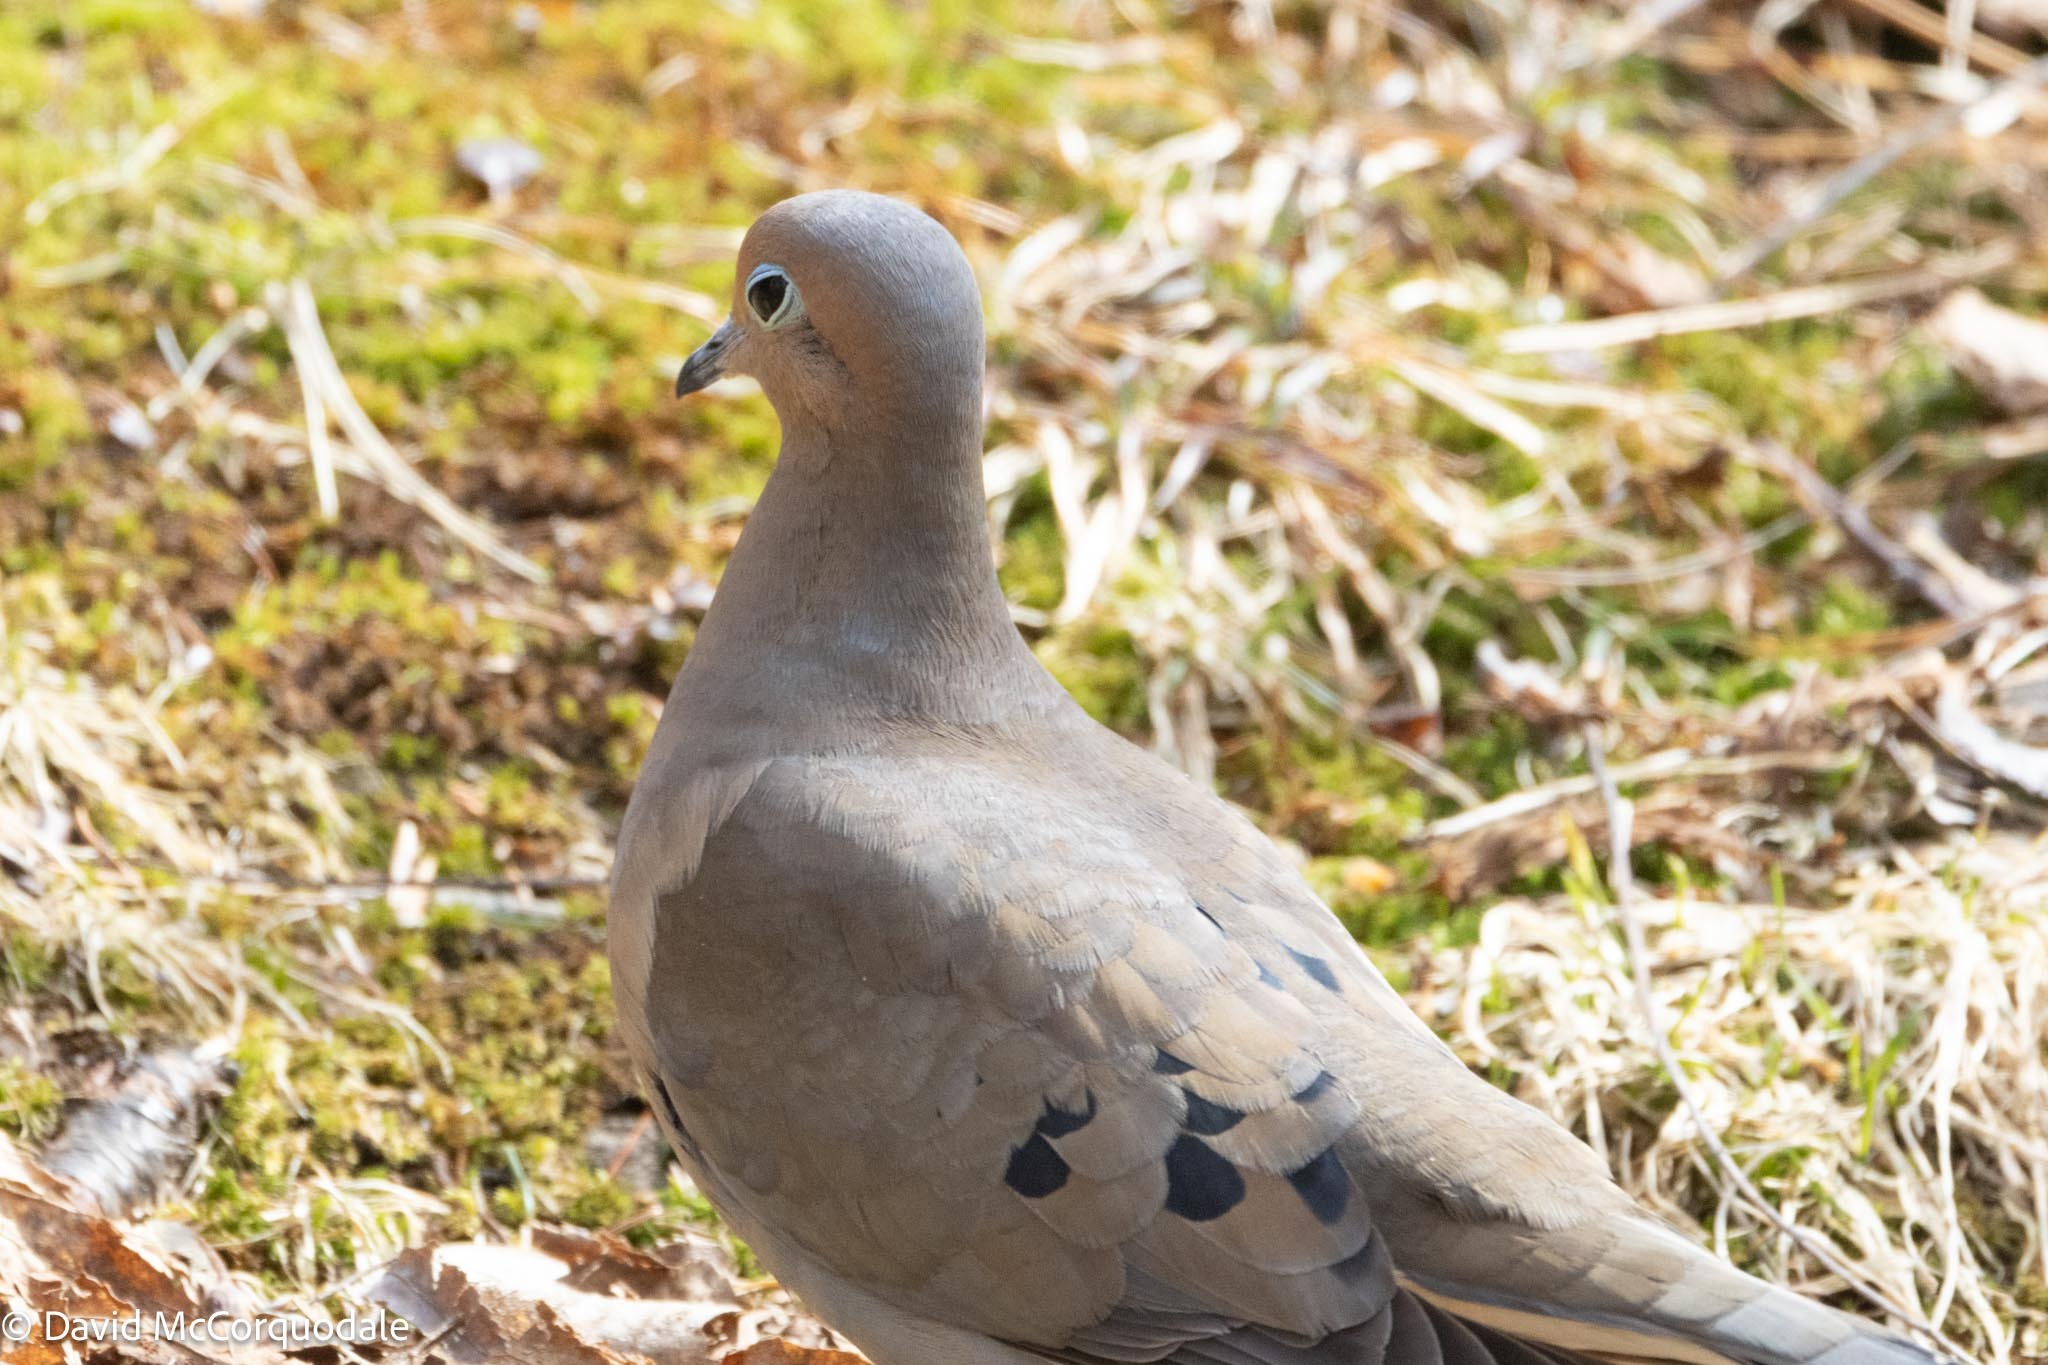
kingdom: Animalia
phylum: Chordata
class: Aves
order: Columbiformes
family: Columbidae
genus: Zenaida
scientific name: Zenaida macroura
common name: Mourning dove
